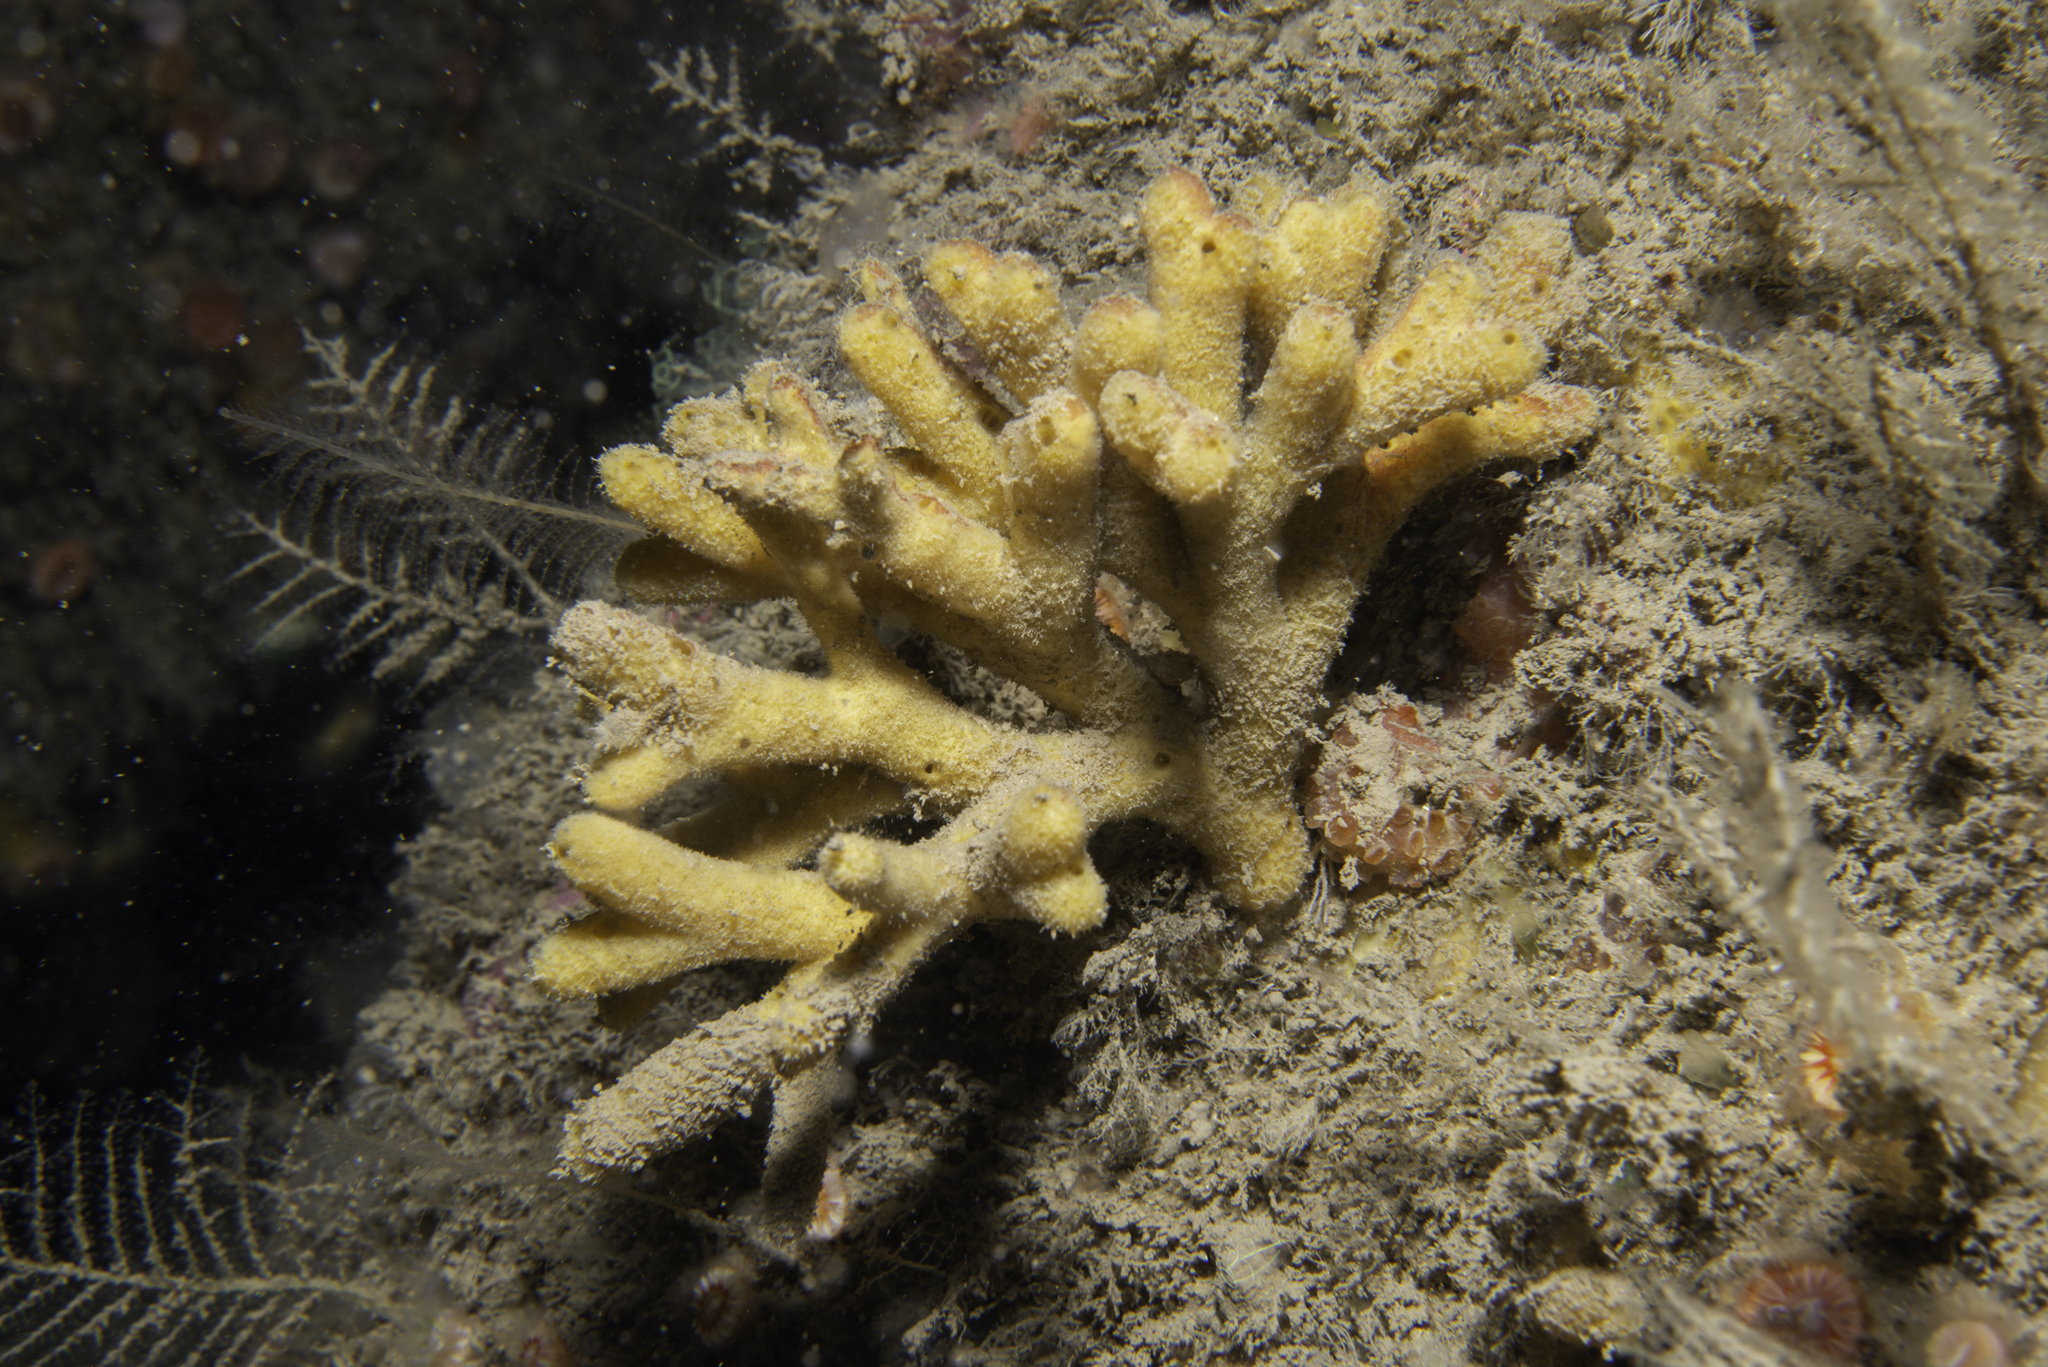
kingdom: Animalia
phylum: Porifera
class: Demospongiae
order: Axinellida
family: Stelligeridae
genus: Stelligera
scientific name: Stelligera stuposa
